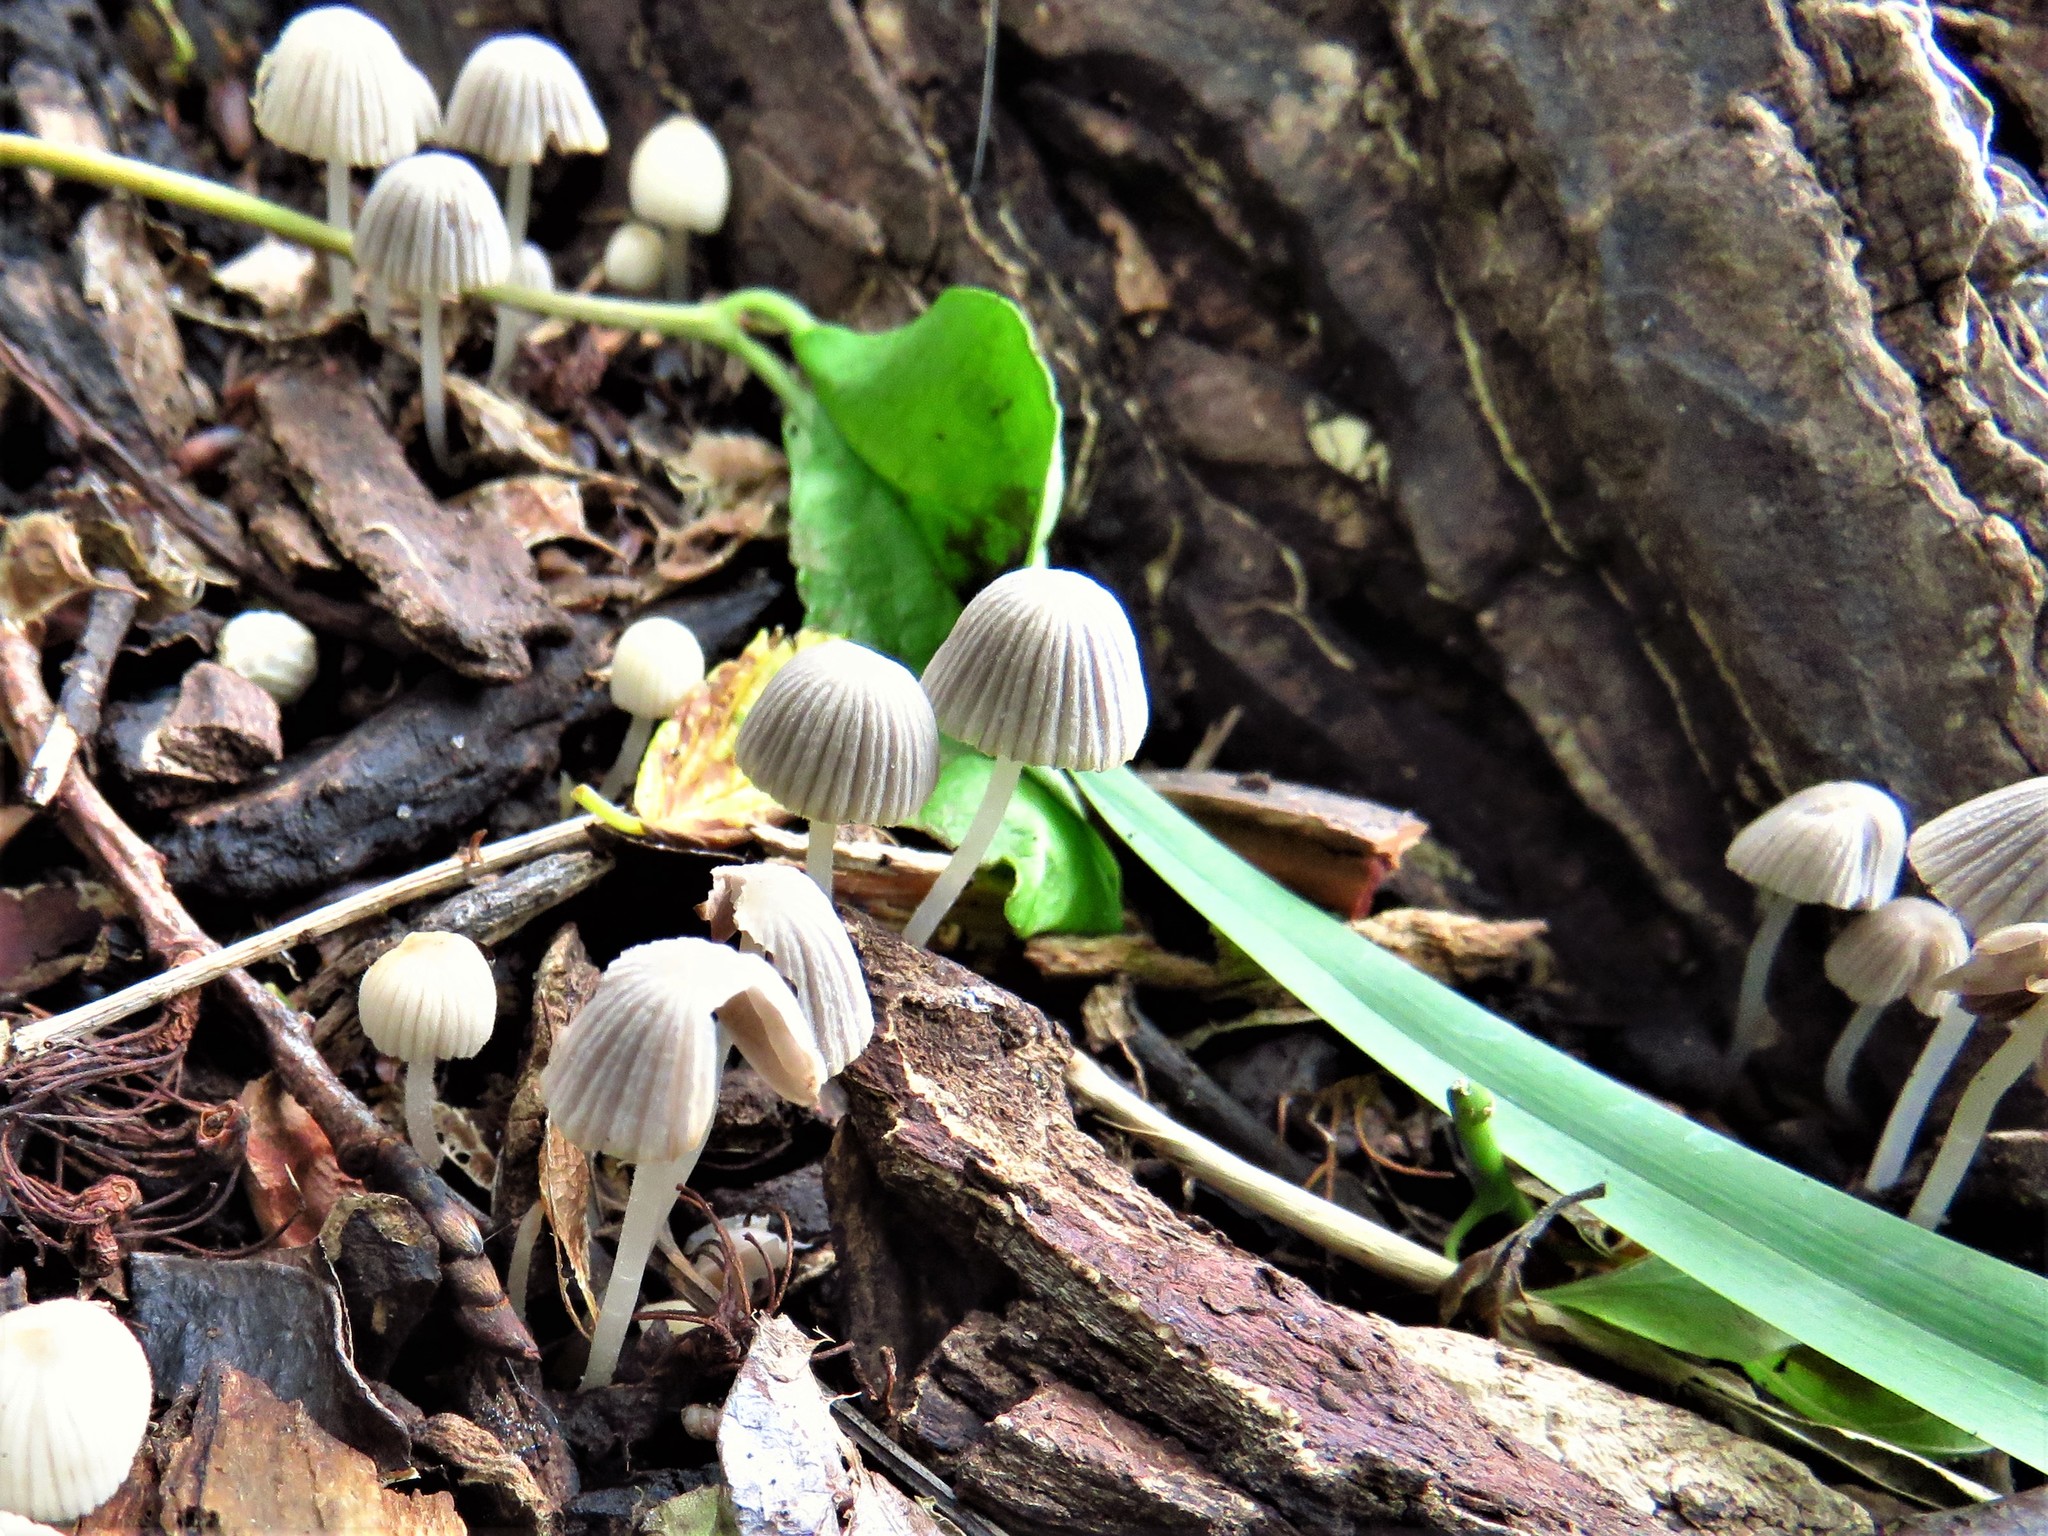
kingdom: Fungi
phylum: Basidiomycota
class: Agaricomycetes
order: Agaricales
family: Psathyrellaceae
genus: Coprinellus
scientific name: Coprinellus disseminatus
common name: Fairies' bonnets
